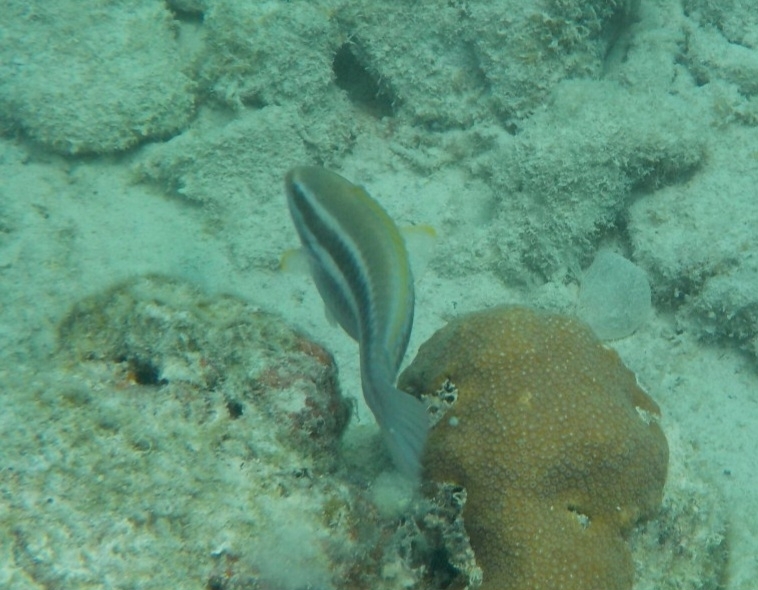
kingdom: Animalia
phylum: Chordata
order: Perciformes
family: Scaridae
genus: Scarus
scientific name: Scarus iseri
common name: Striped parrotfish
